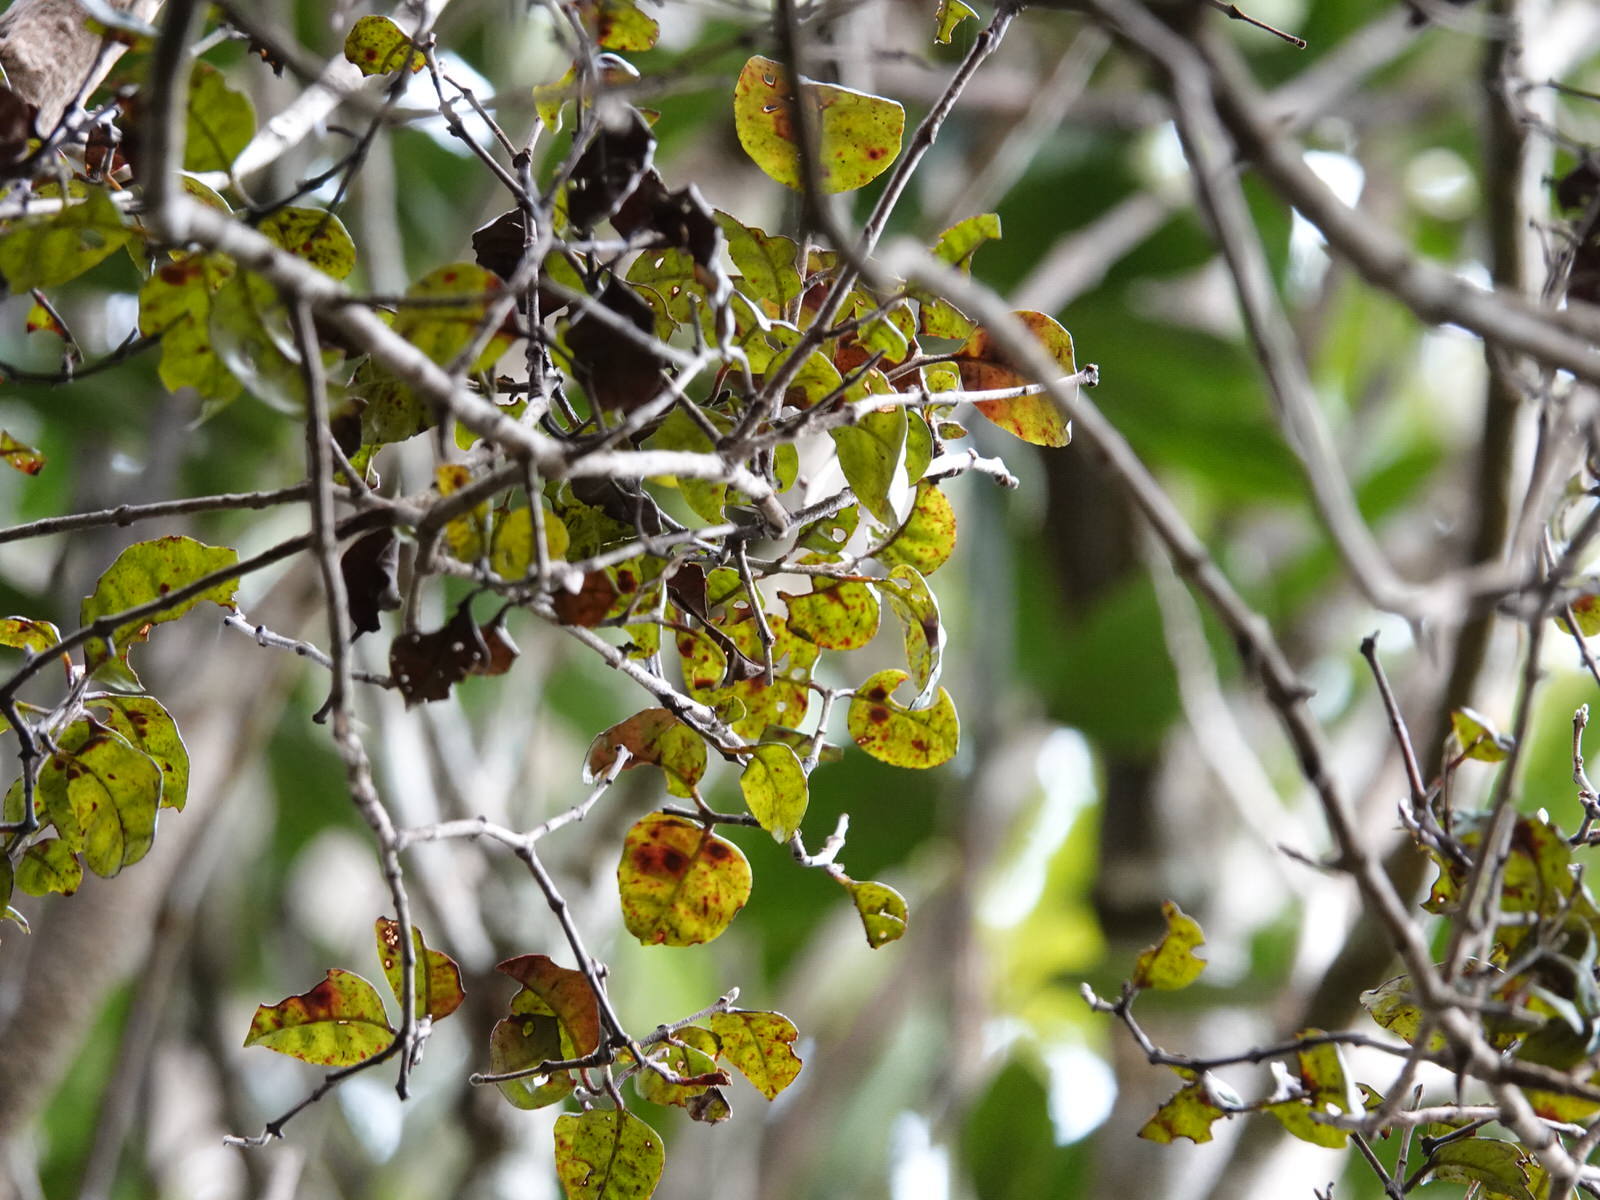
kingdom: Plantae
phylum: Tracheophyta
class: Magnoliopsida
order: Myrtales
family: Myrtaceae
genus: Lophomyrtus
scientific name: Lophomyrtus bullata
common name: Rama rama
